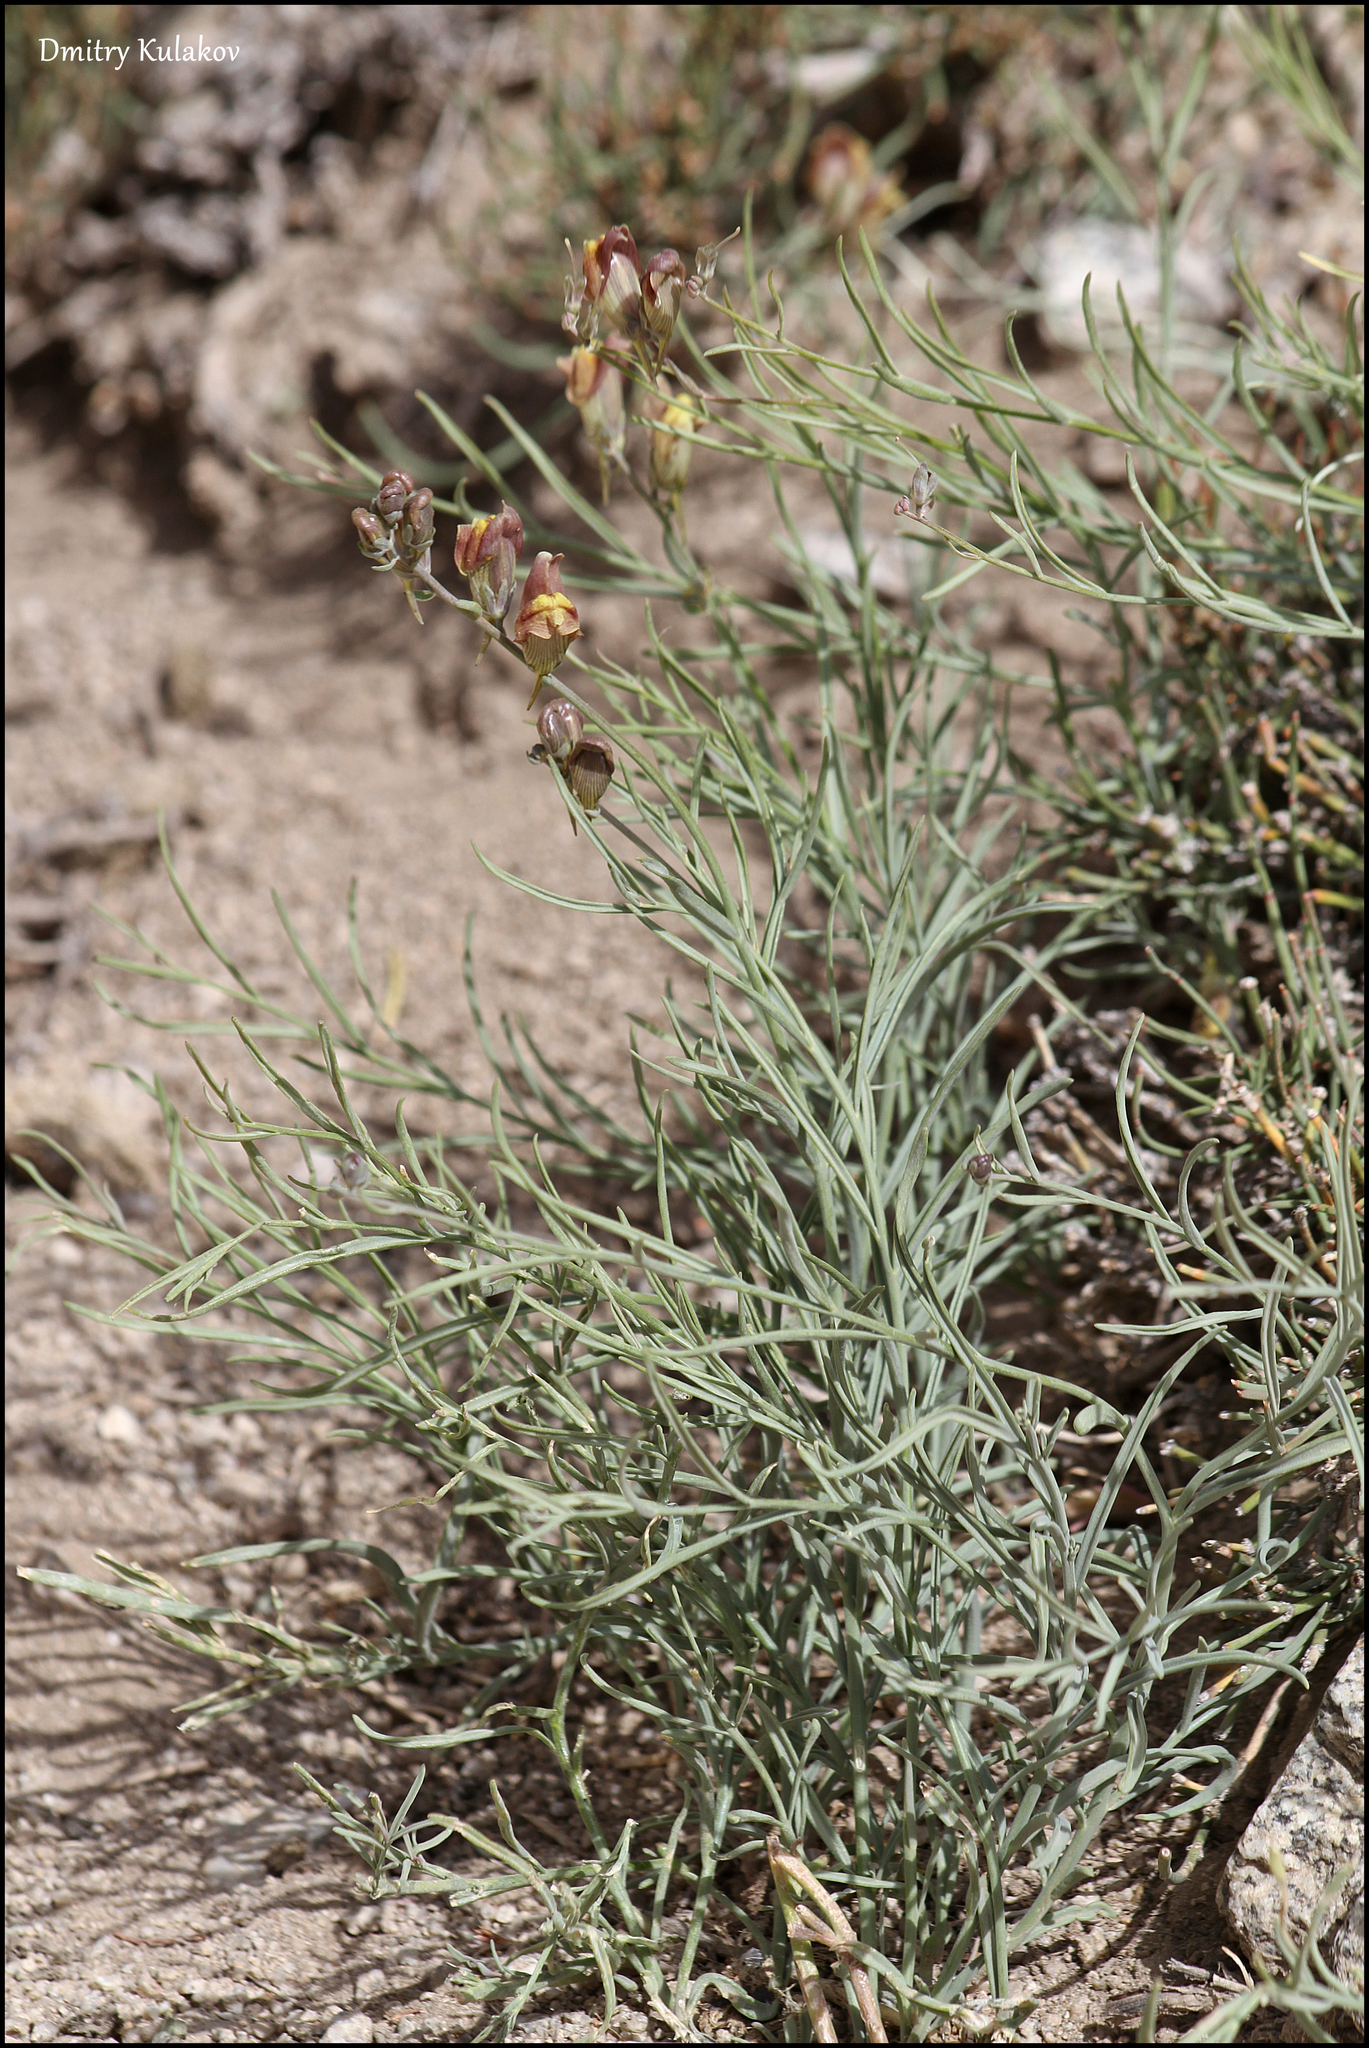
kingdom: Plantae
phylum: Tracheophyta
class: Magnoliopsida
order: Lamiales
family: Plantaginaceae
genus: Linaria
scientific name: Linaria sessilis
